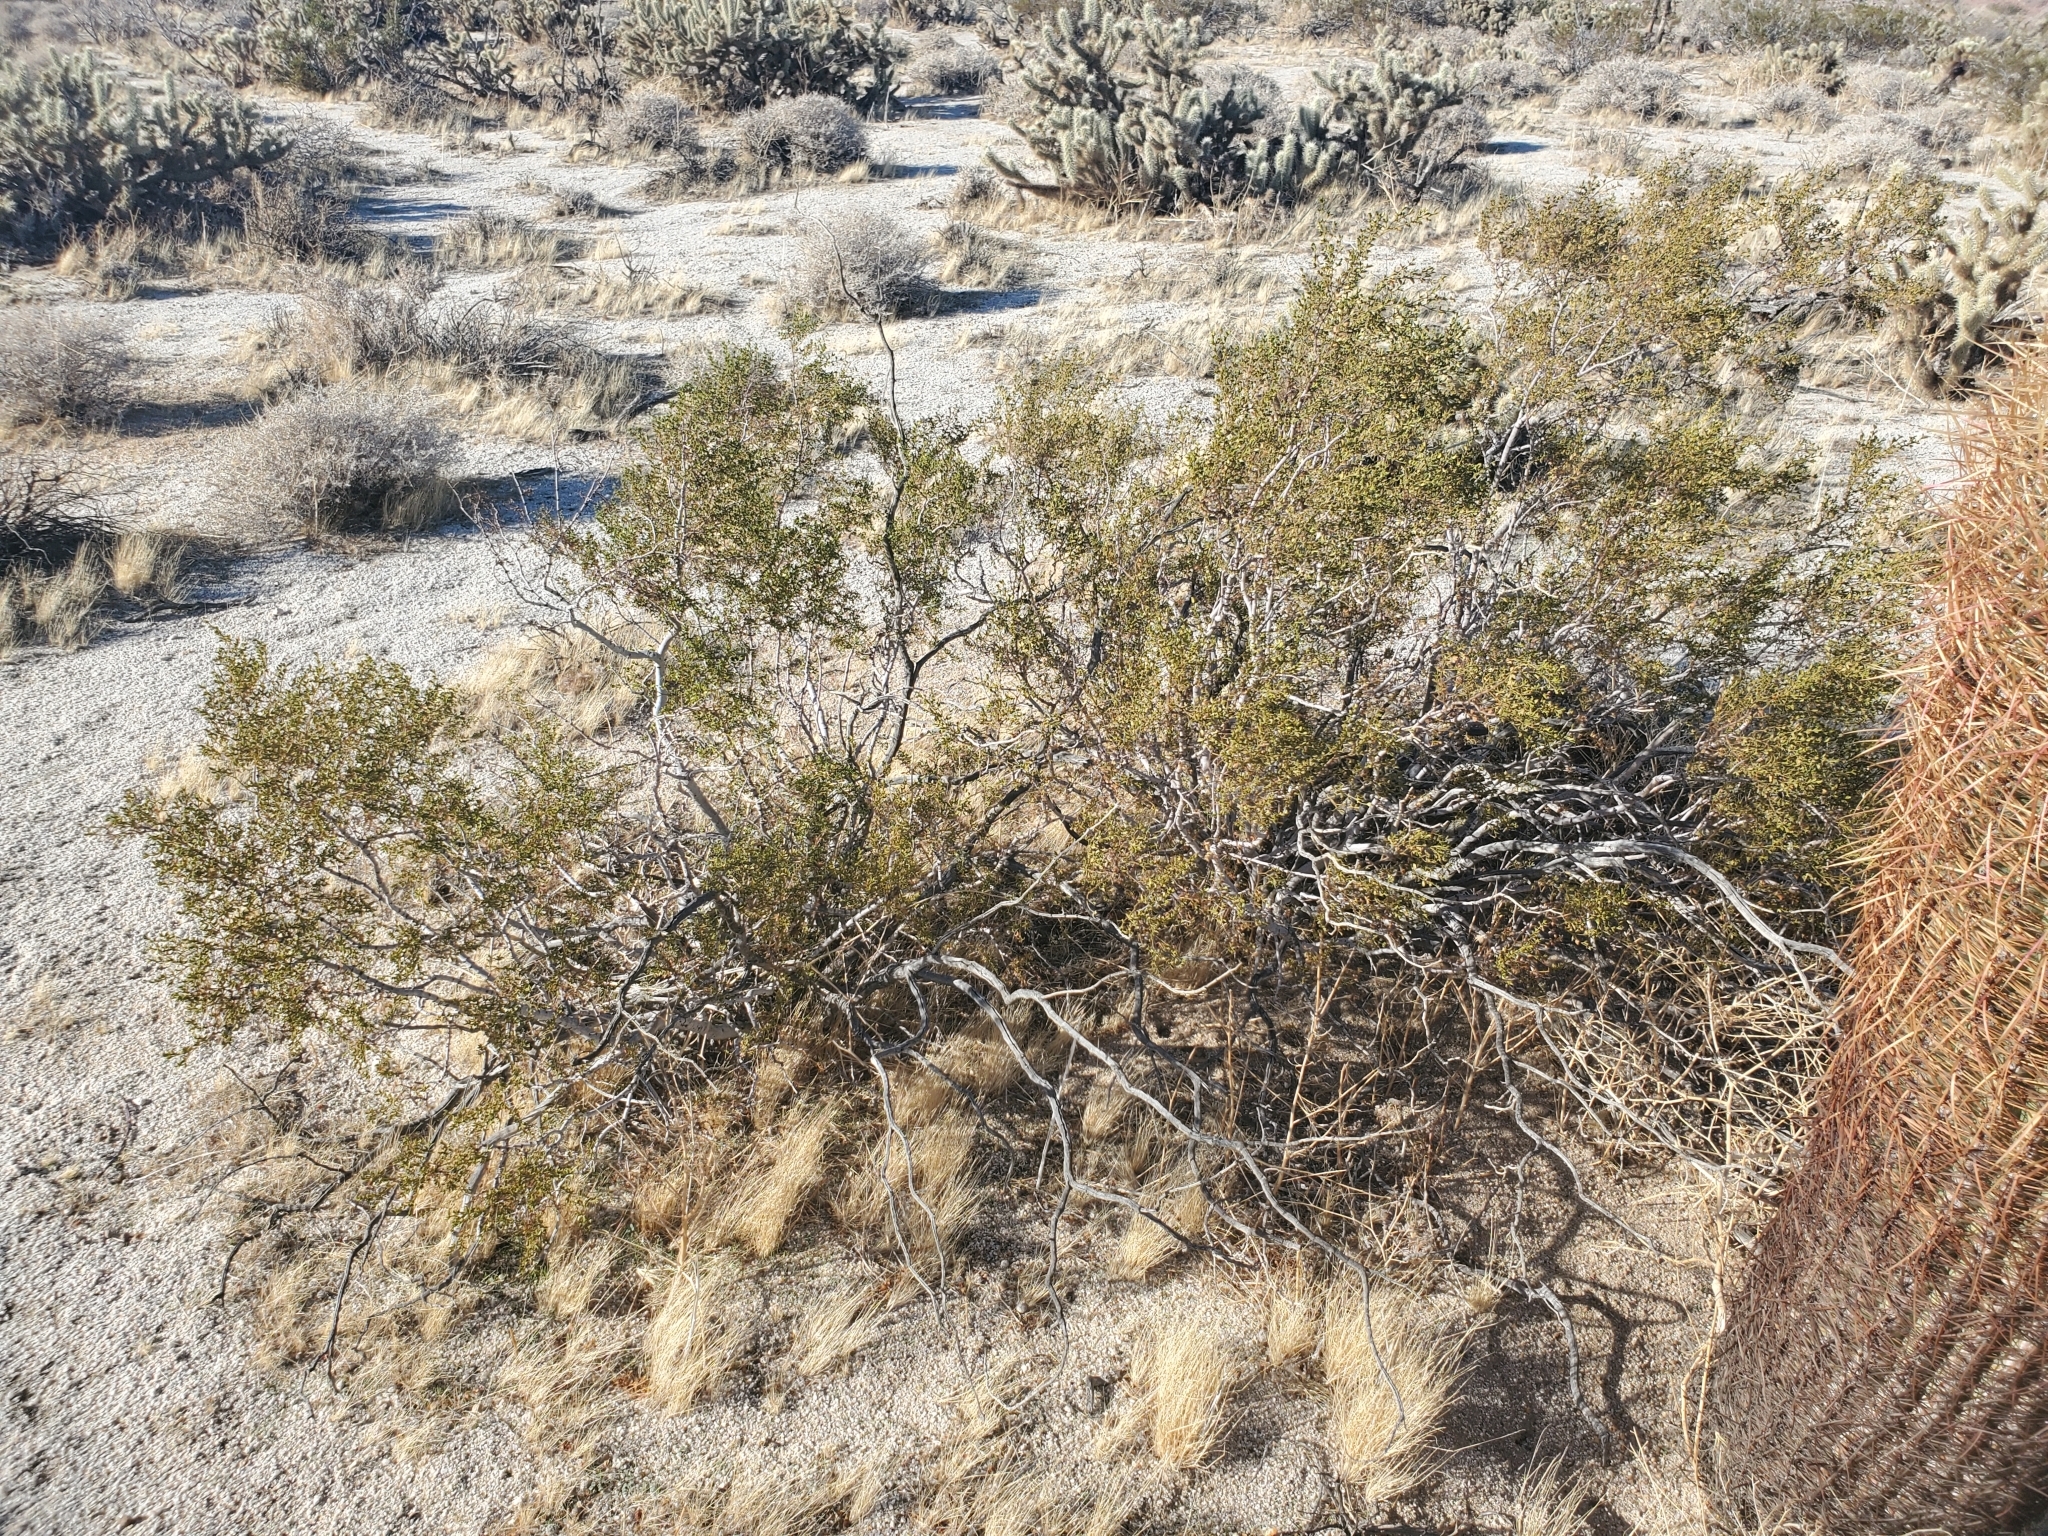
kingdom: Plantae
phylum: Tracheophyta
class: Magnoliopsida
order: Zygophyllales
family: Zygophyllaceae
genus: Larrea
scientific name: Larrea tridentata
